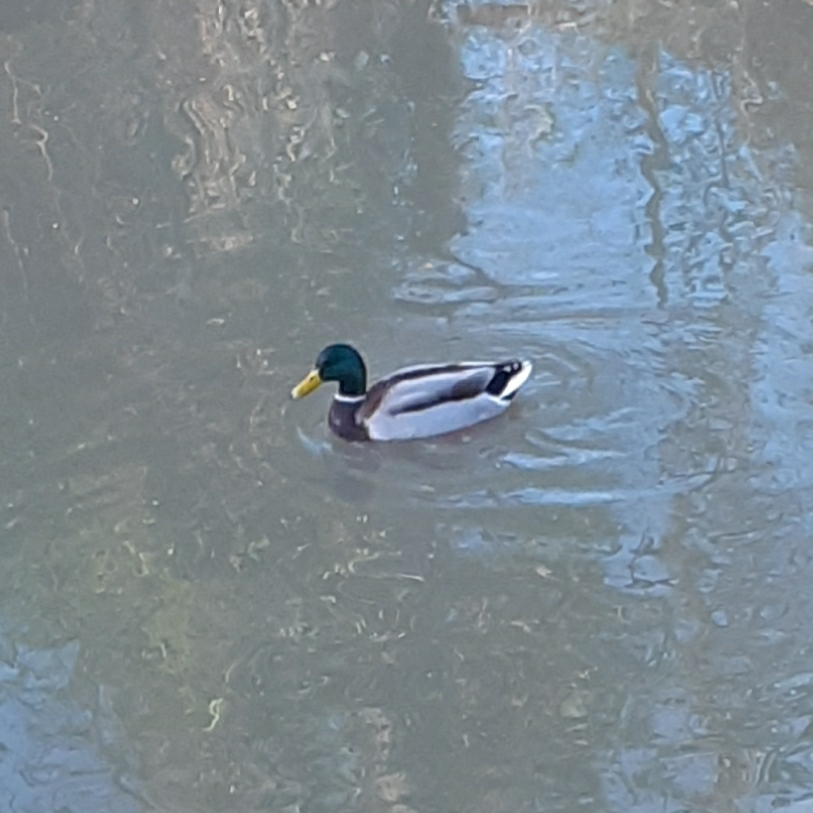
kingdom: Animalia
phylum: Chordata
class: Aves
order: Anseriformes
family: Anatidae
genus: Anas
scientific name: Anas platyrhynchos
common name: Mallard
